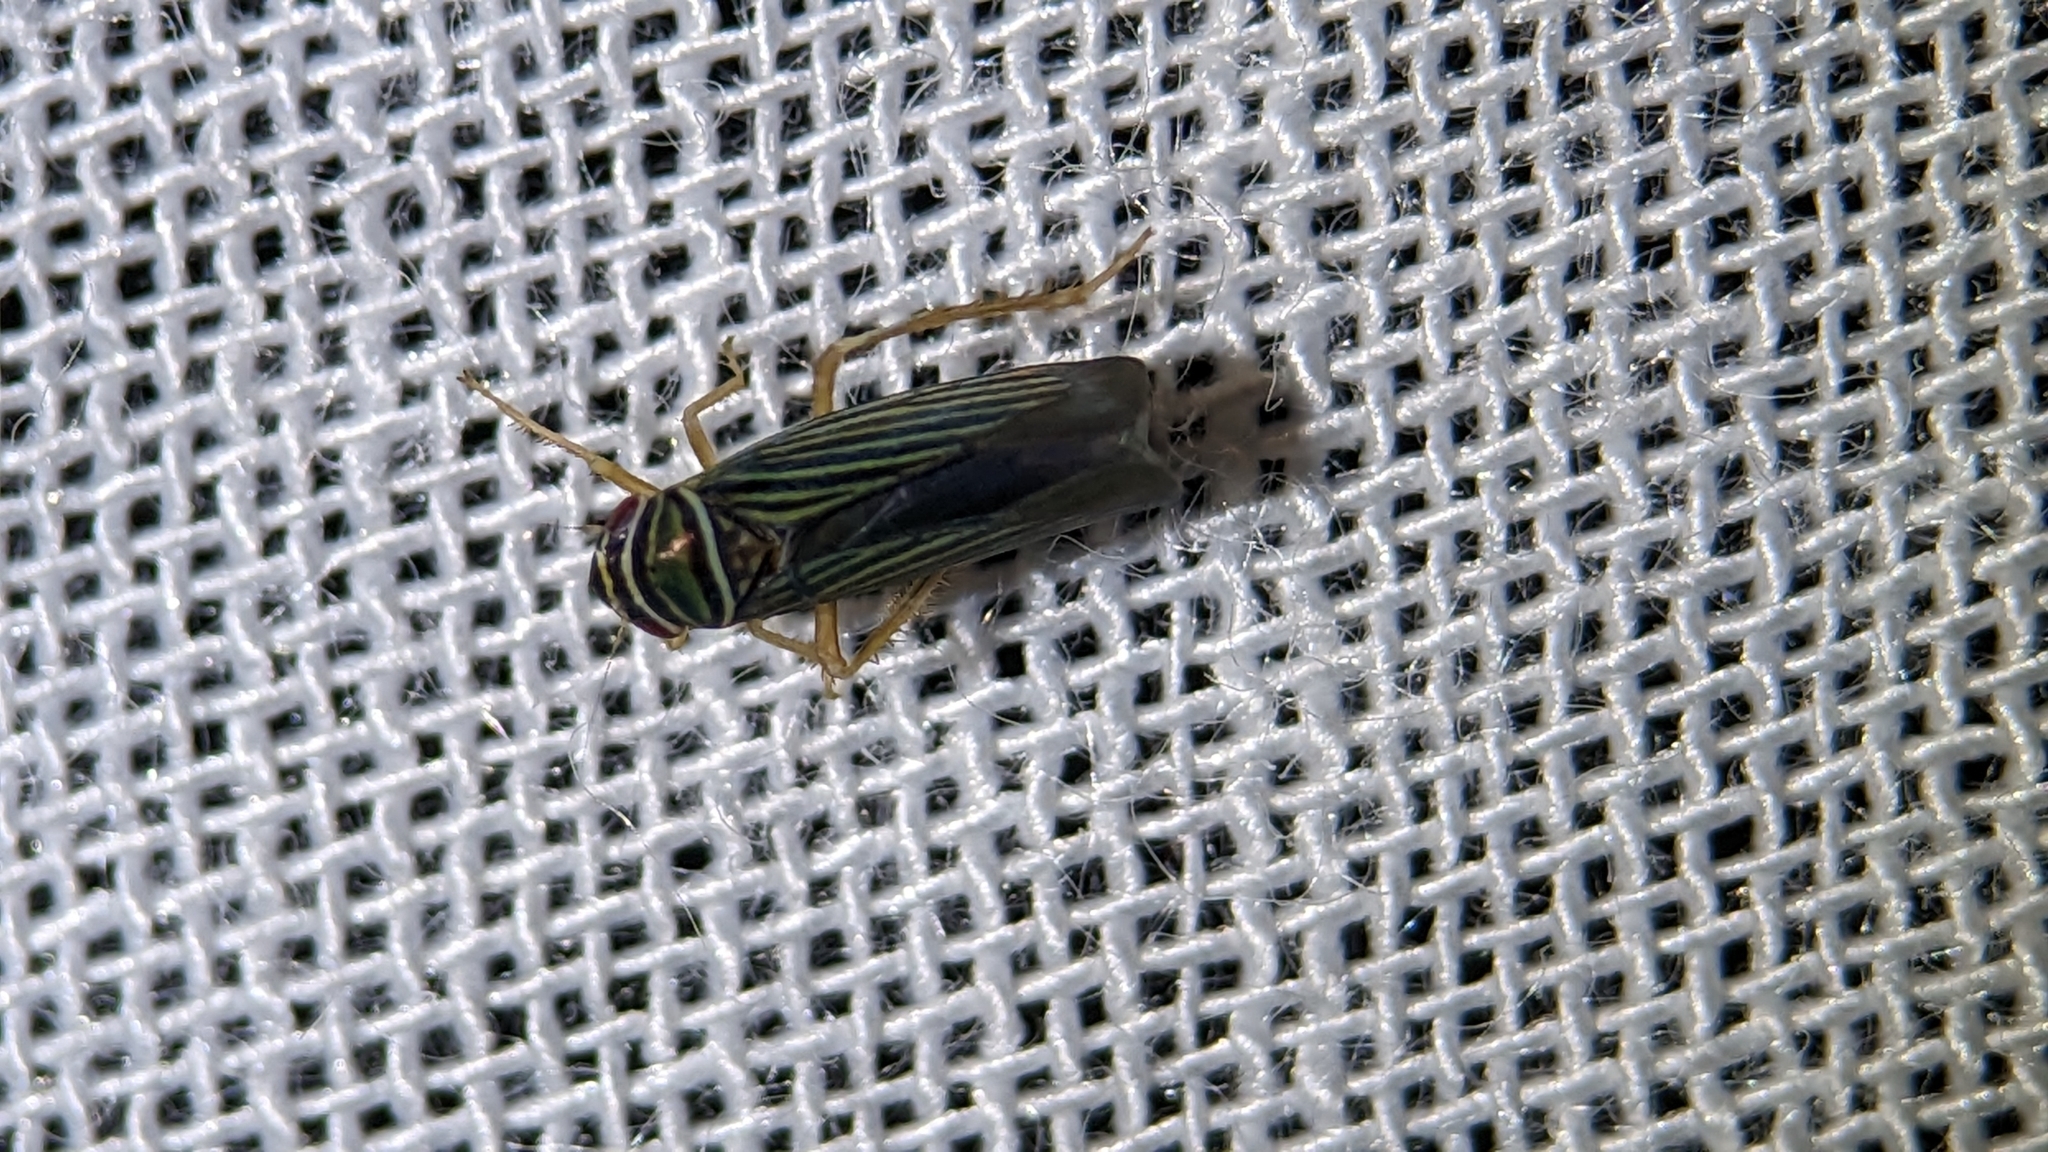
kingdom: Animalia
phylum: Arthropoda
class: Insecta
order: Hemiptera
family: Cicadellidae
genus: Tylozygus
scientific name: Tylozygus bifidus
